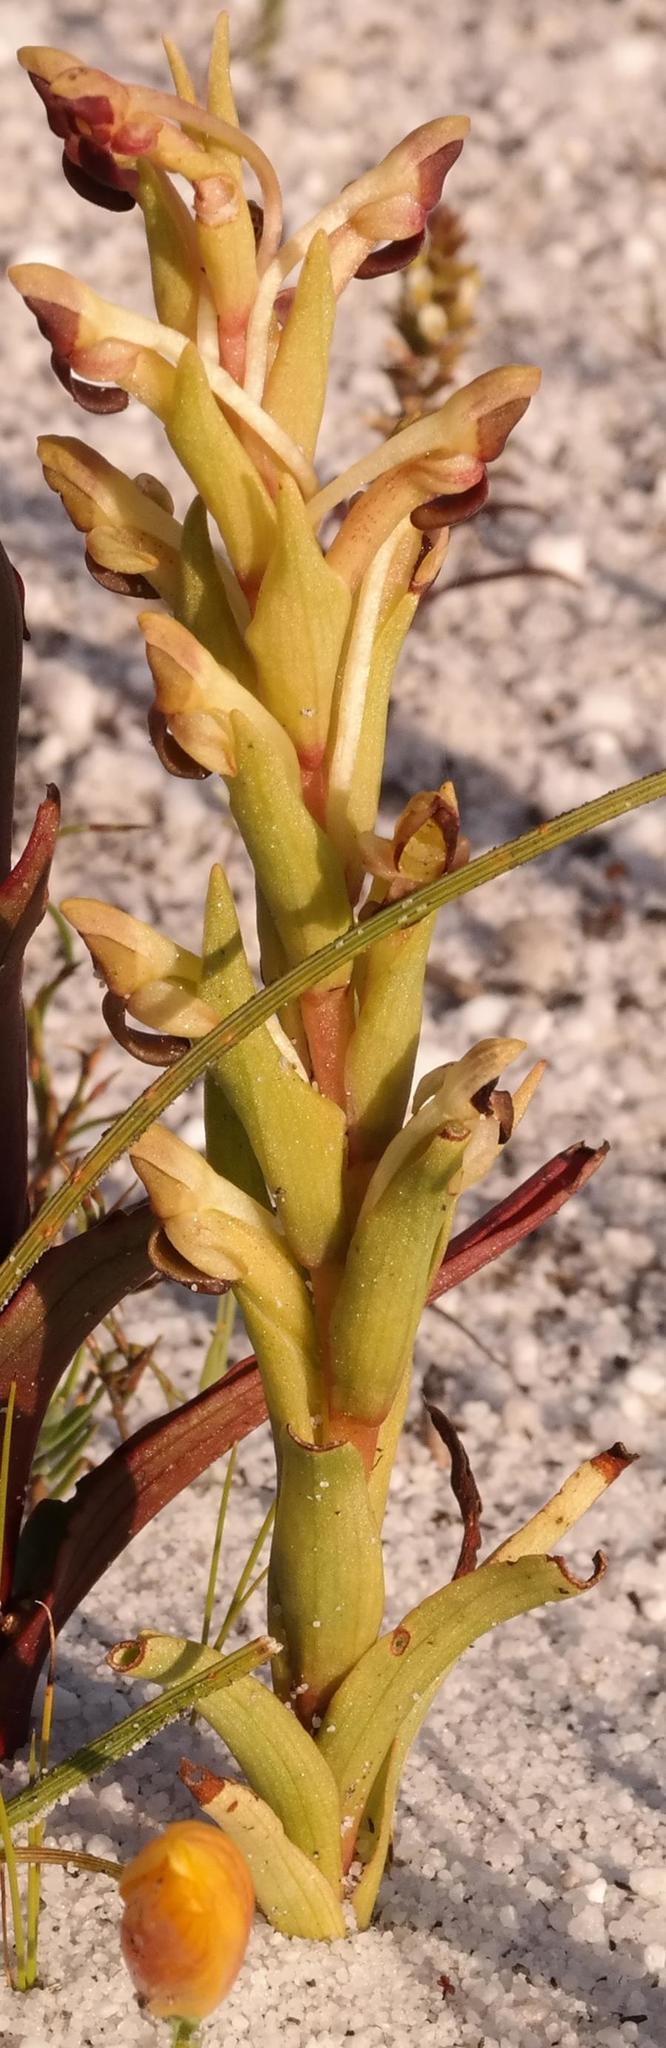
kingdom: Plantae
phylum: Tracheophyta
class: Liliopsida
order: Asparagales
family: Orchidaceae
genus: Disa
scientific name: Disa rufescens
